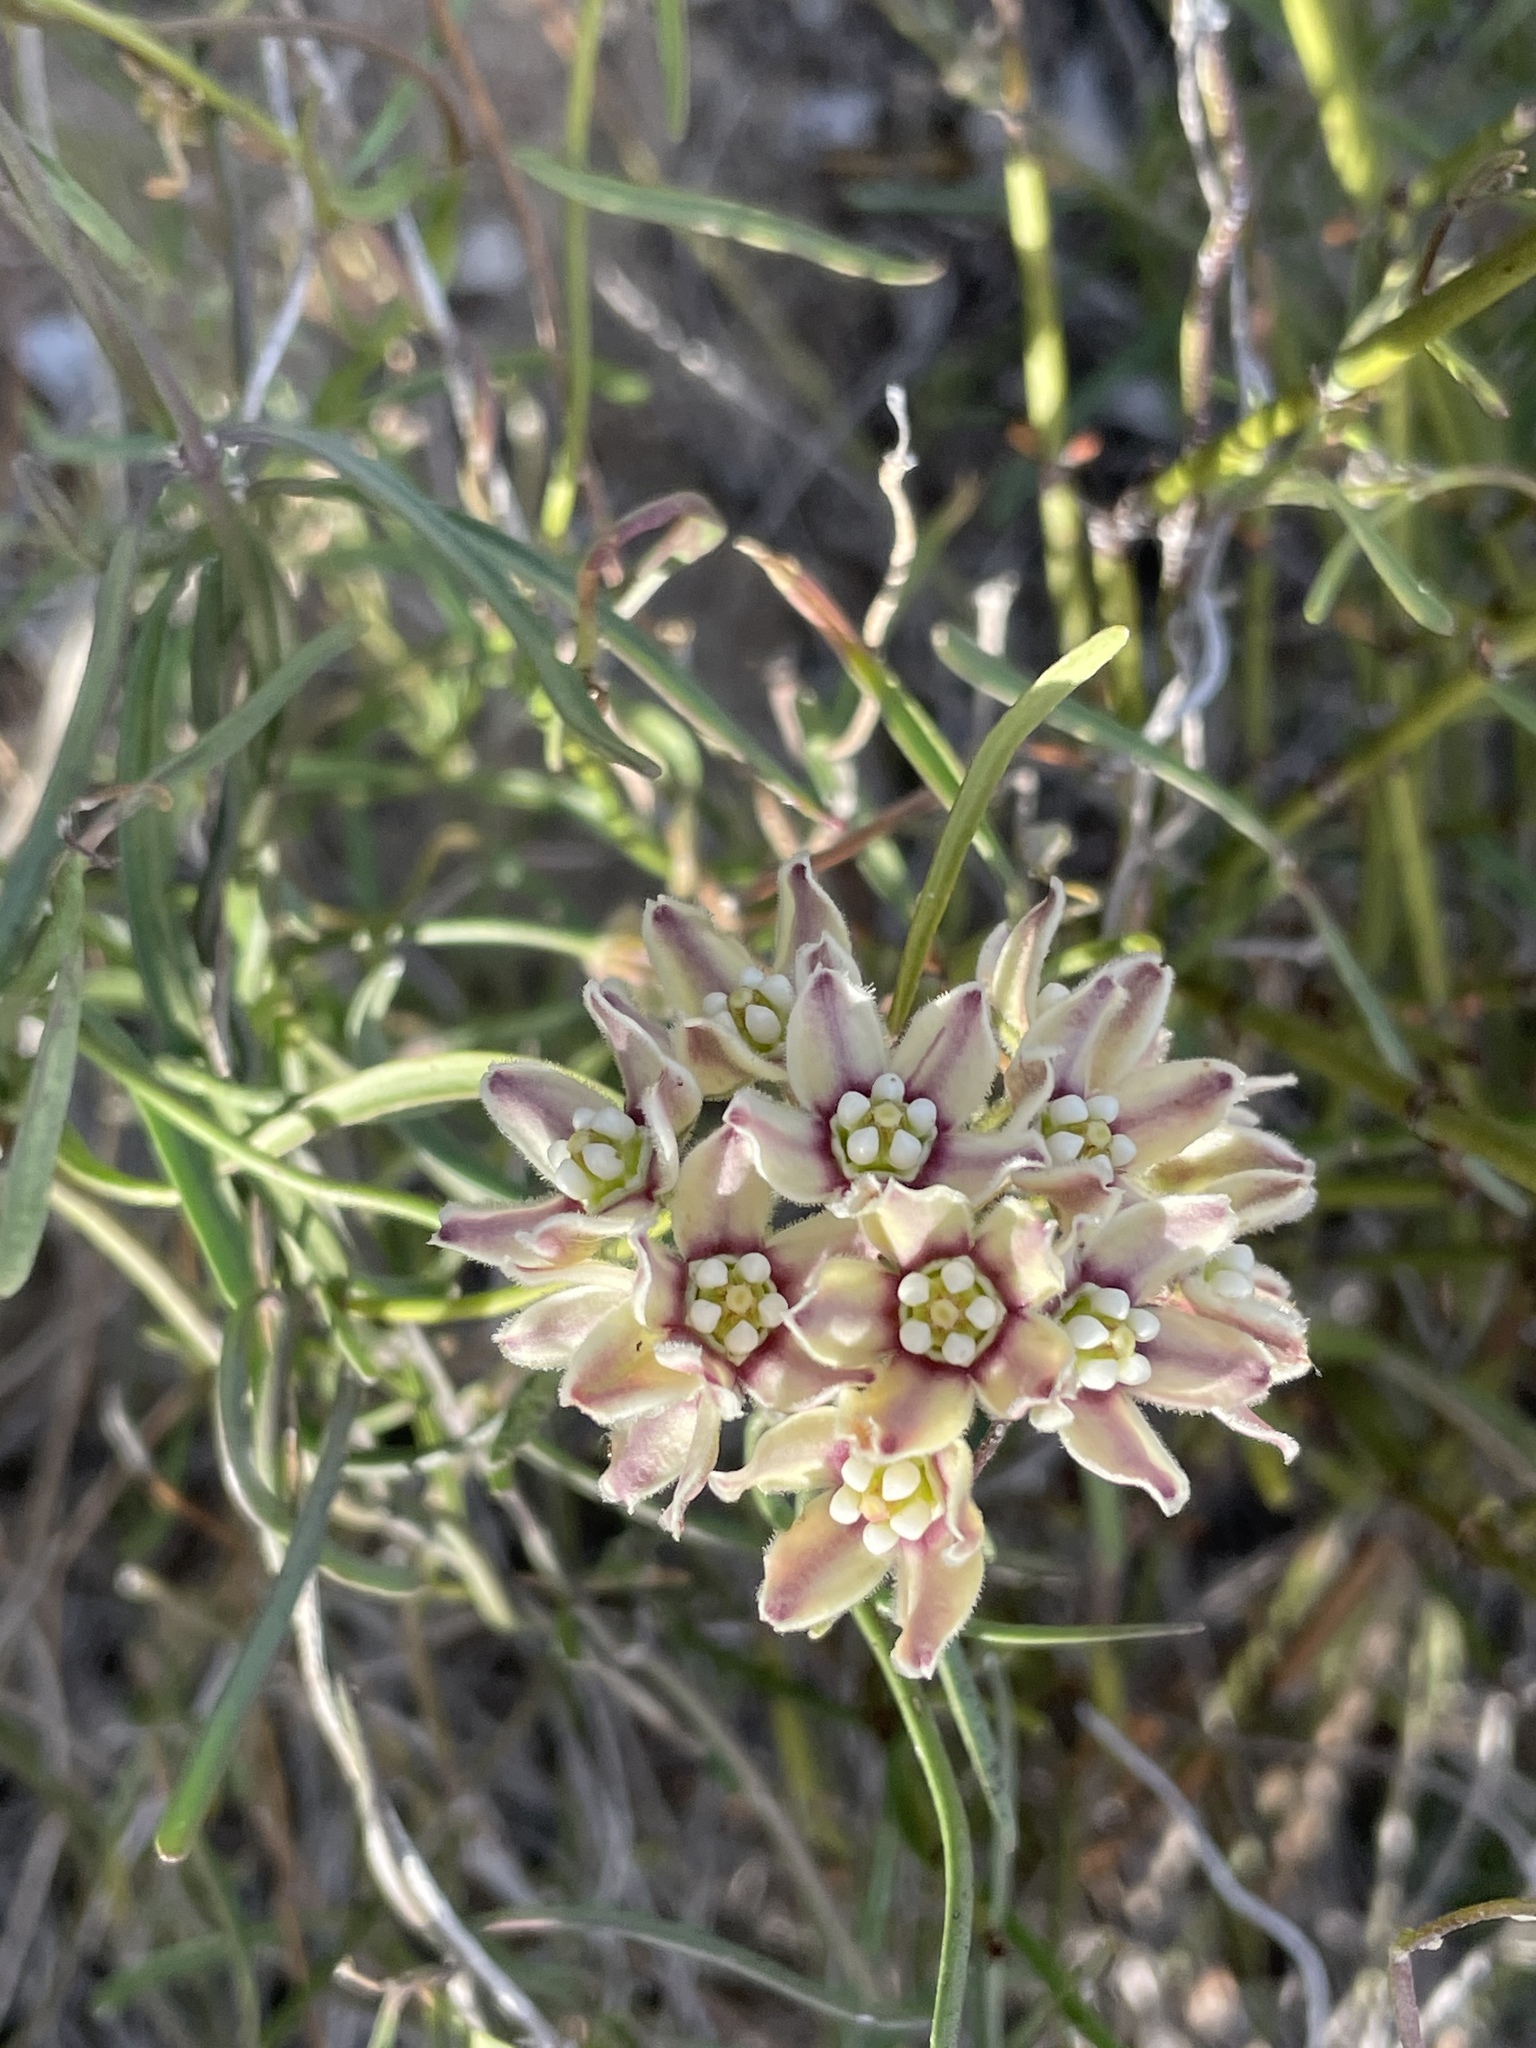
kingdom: Plantae
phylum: Tracheophyta
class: Magnoliopsida
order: Gentianales
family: Apocynaceae
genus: Funastrum
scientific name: Funastrum arenarium
